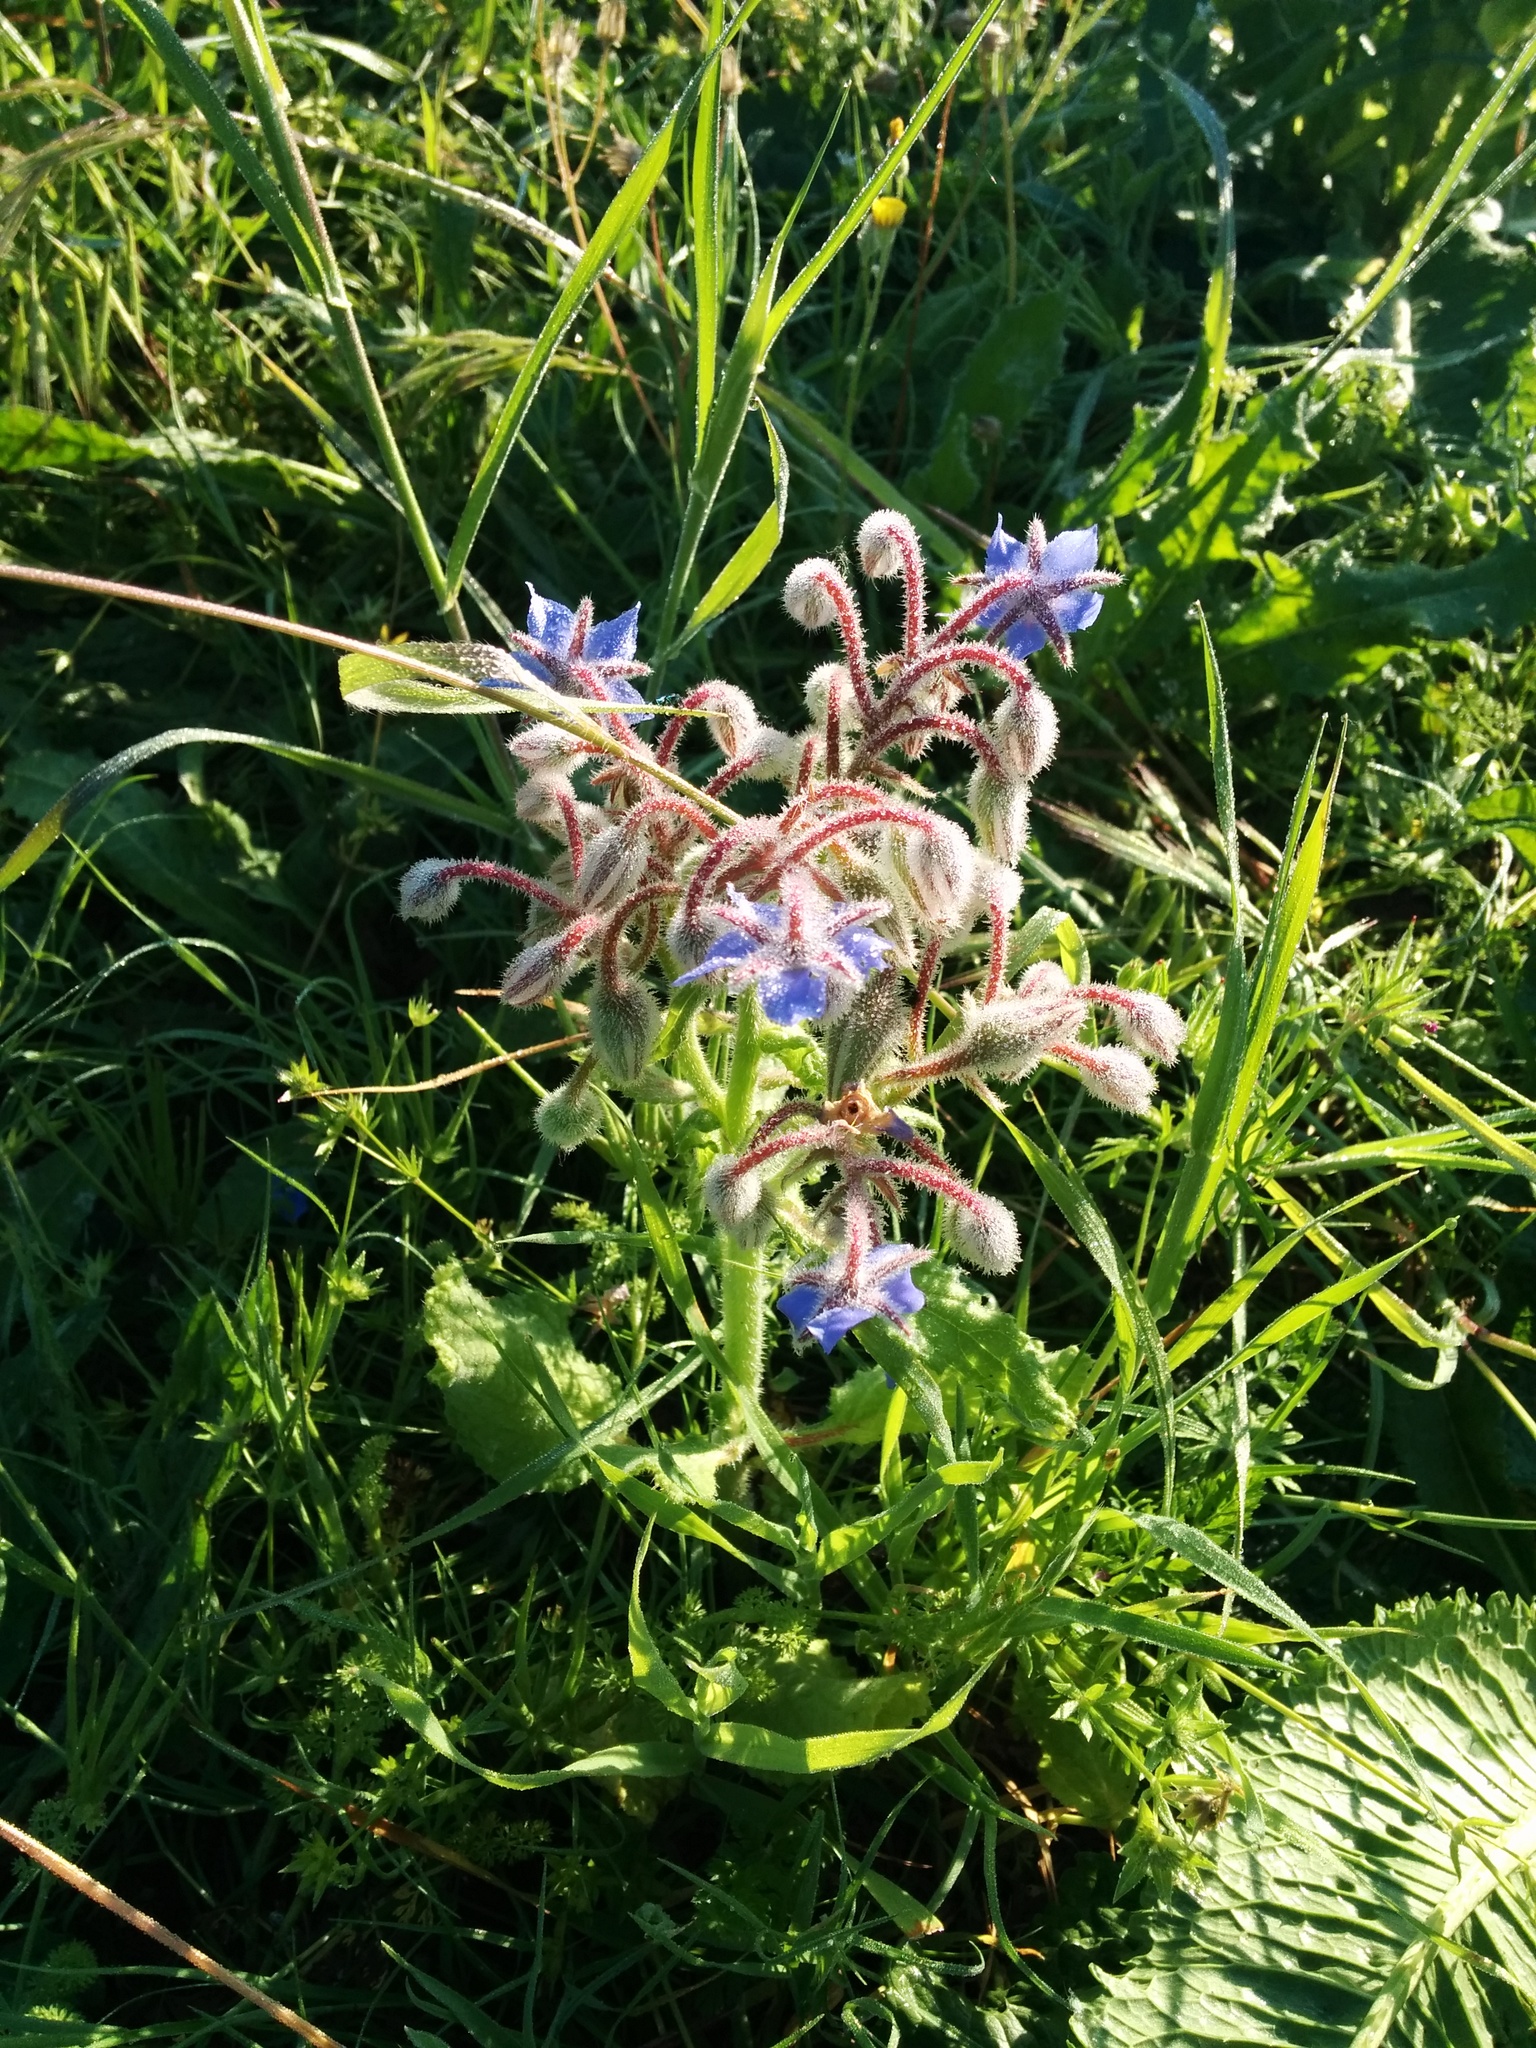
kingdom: Plantae
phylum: Tracheophyta
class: Magnoliopsida
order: Boraginales
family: Boraginaceae
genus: Borago
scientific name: Borago officinalis
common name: Borage
